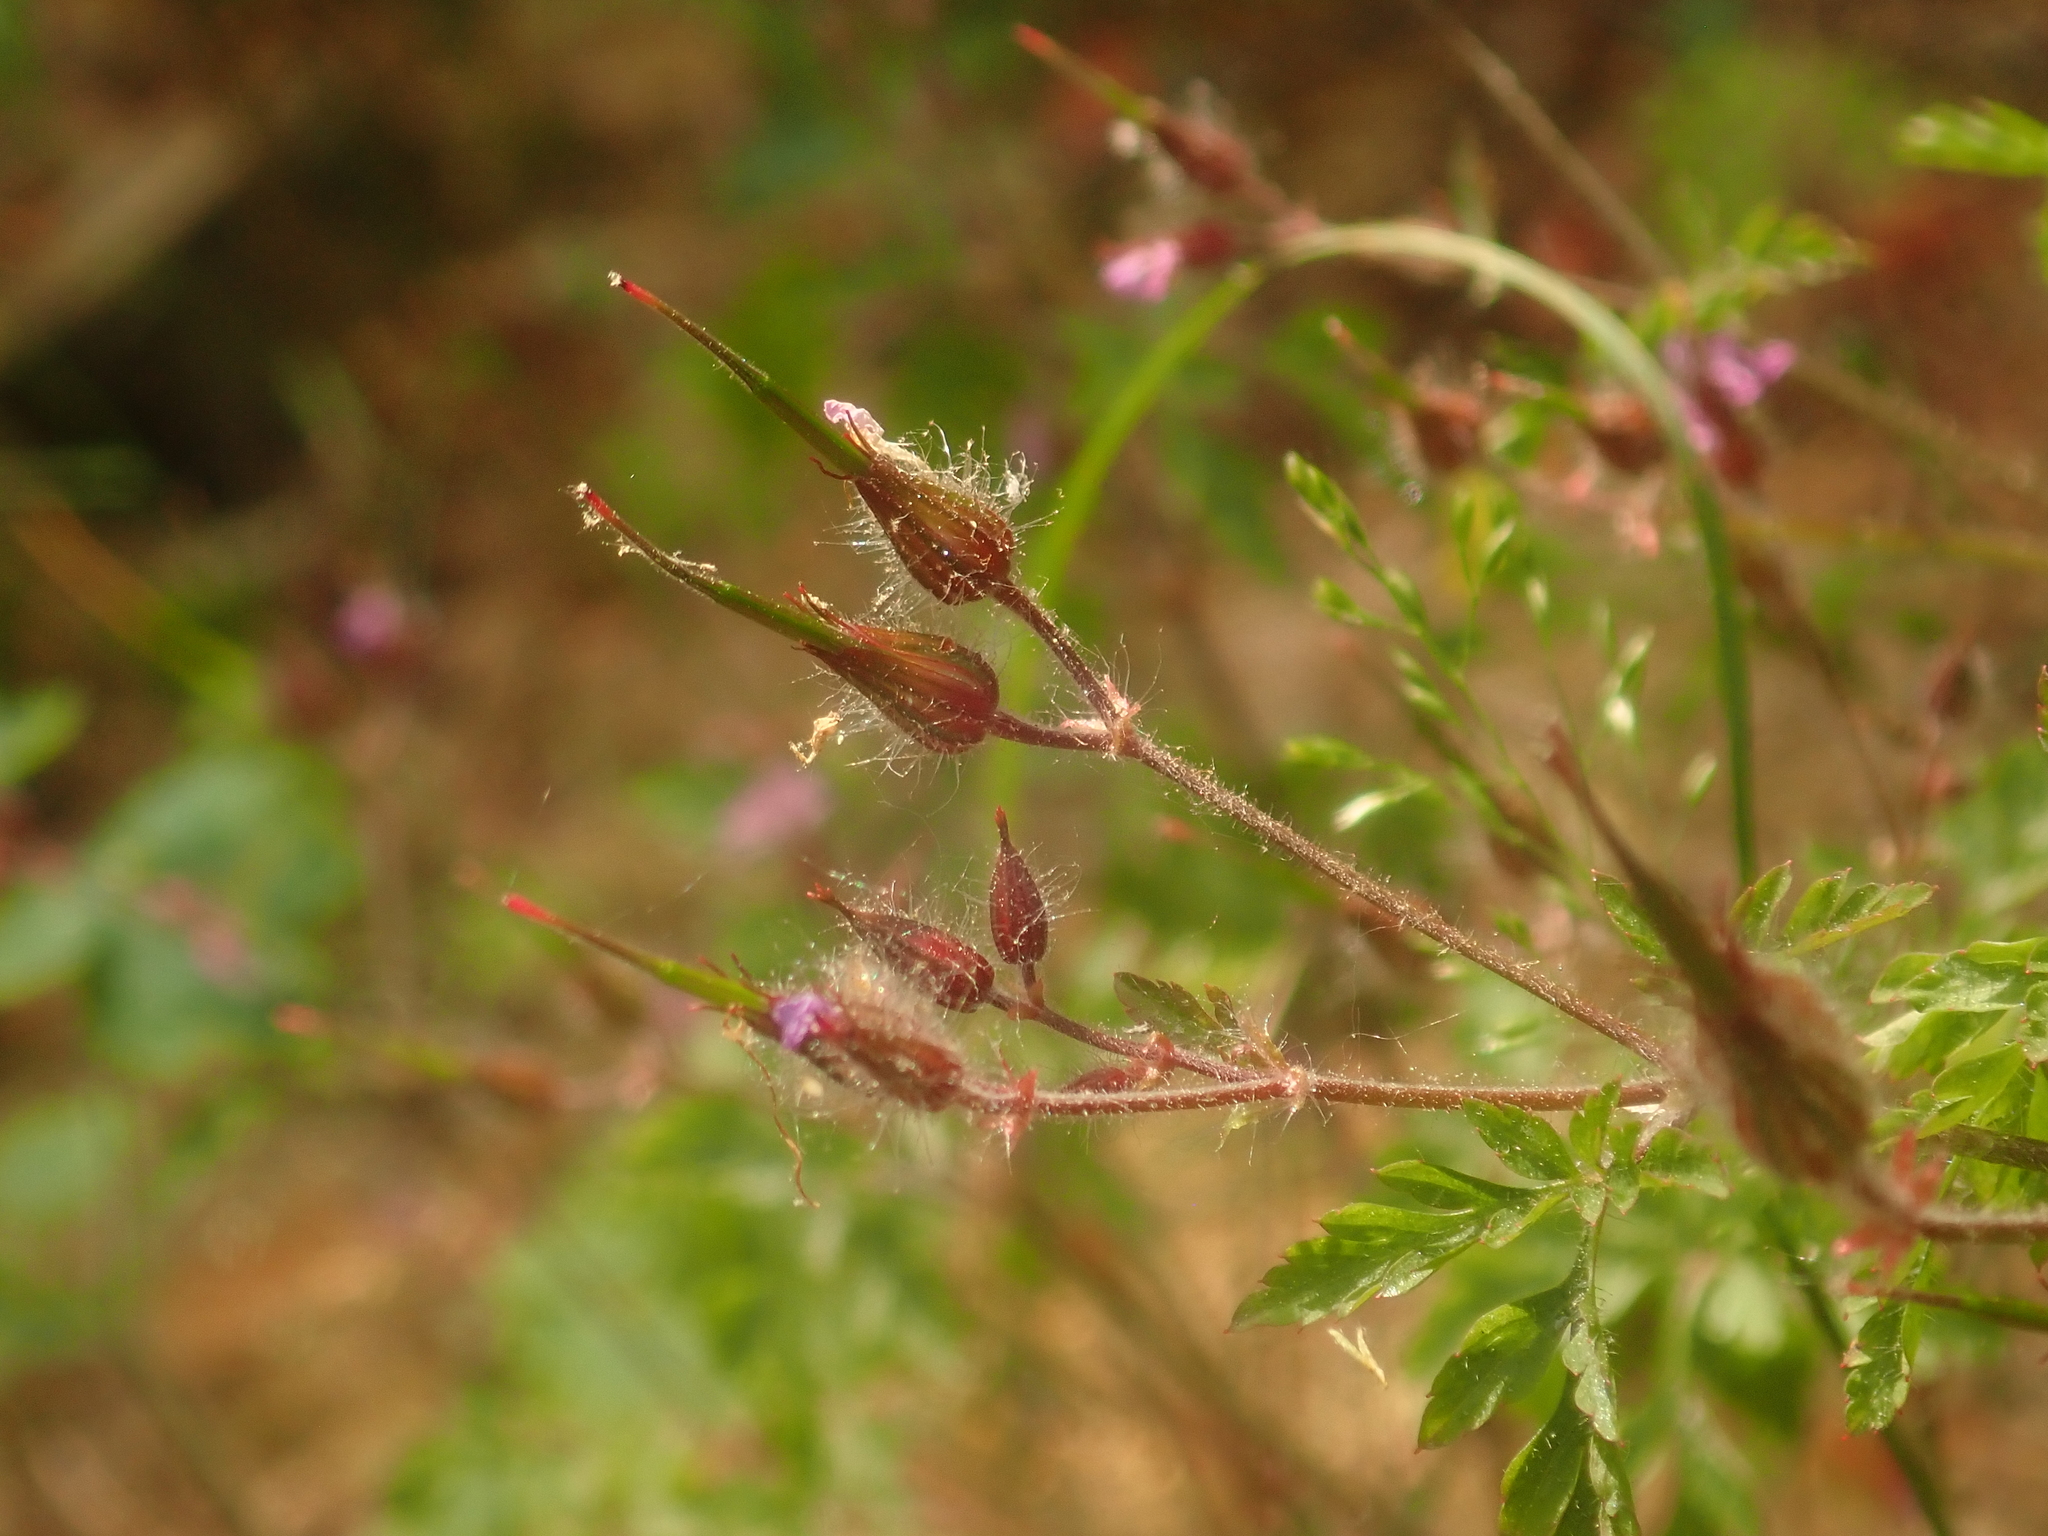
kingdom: Plantae
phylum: Tracheophyta
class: Magnoliopsida
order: Geraniales
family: Geraniaceae
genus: Geranium
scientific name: Geranium robertianum
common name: Herb-robert
